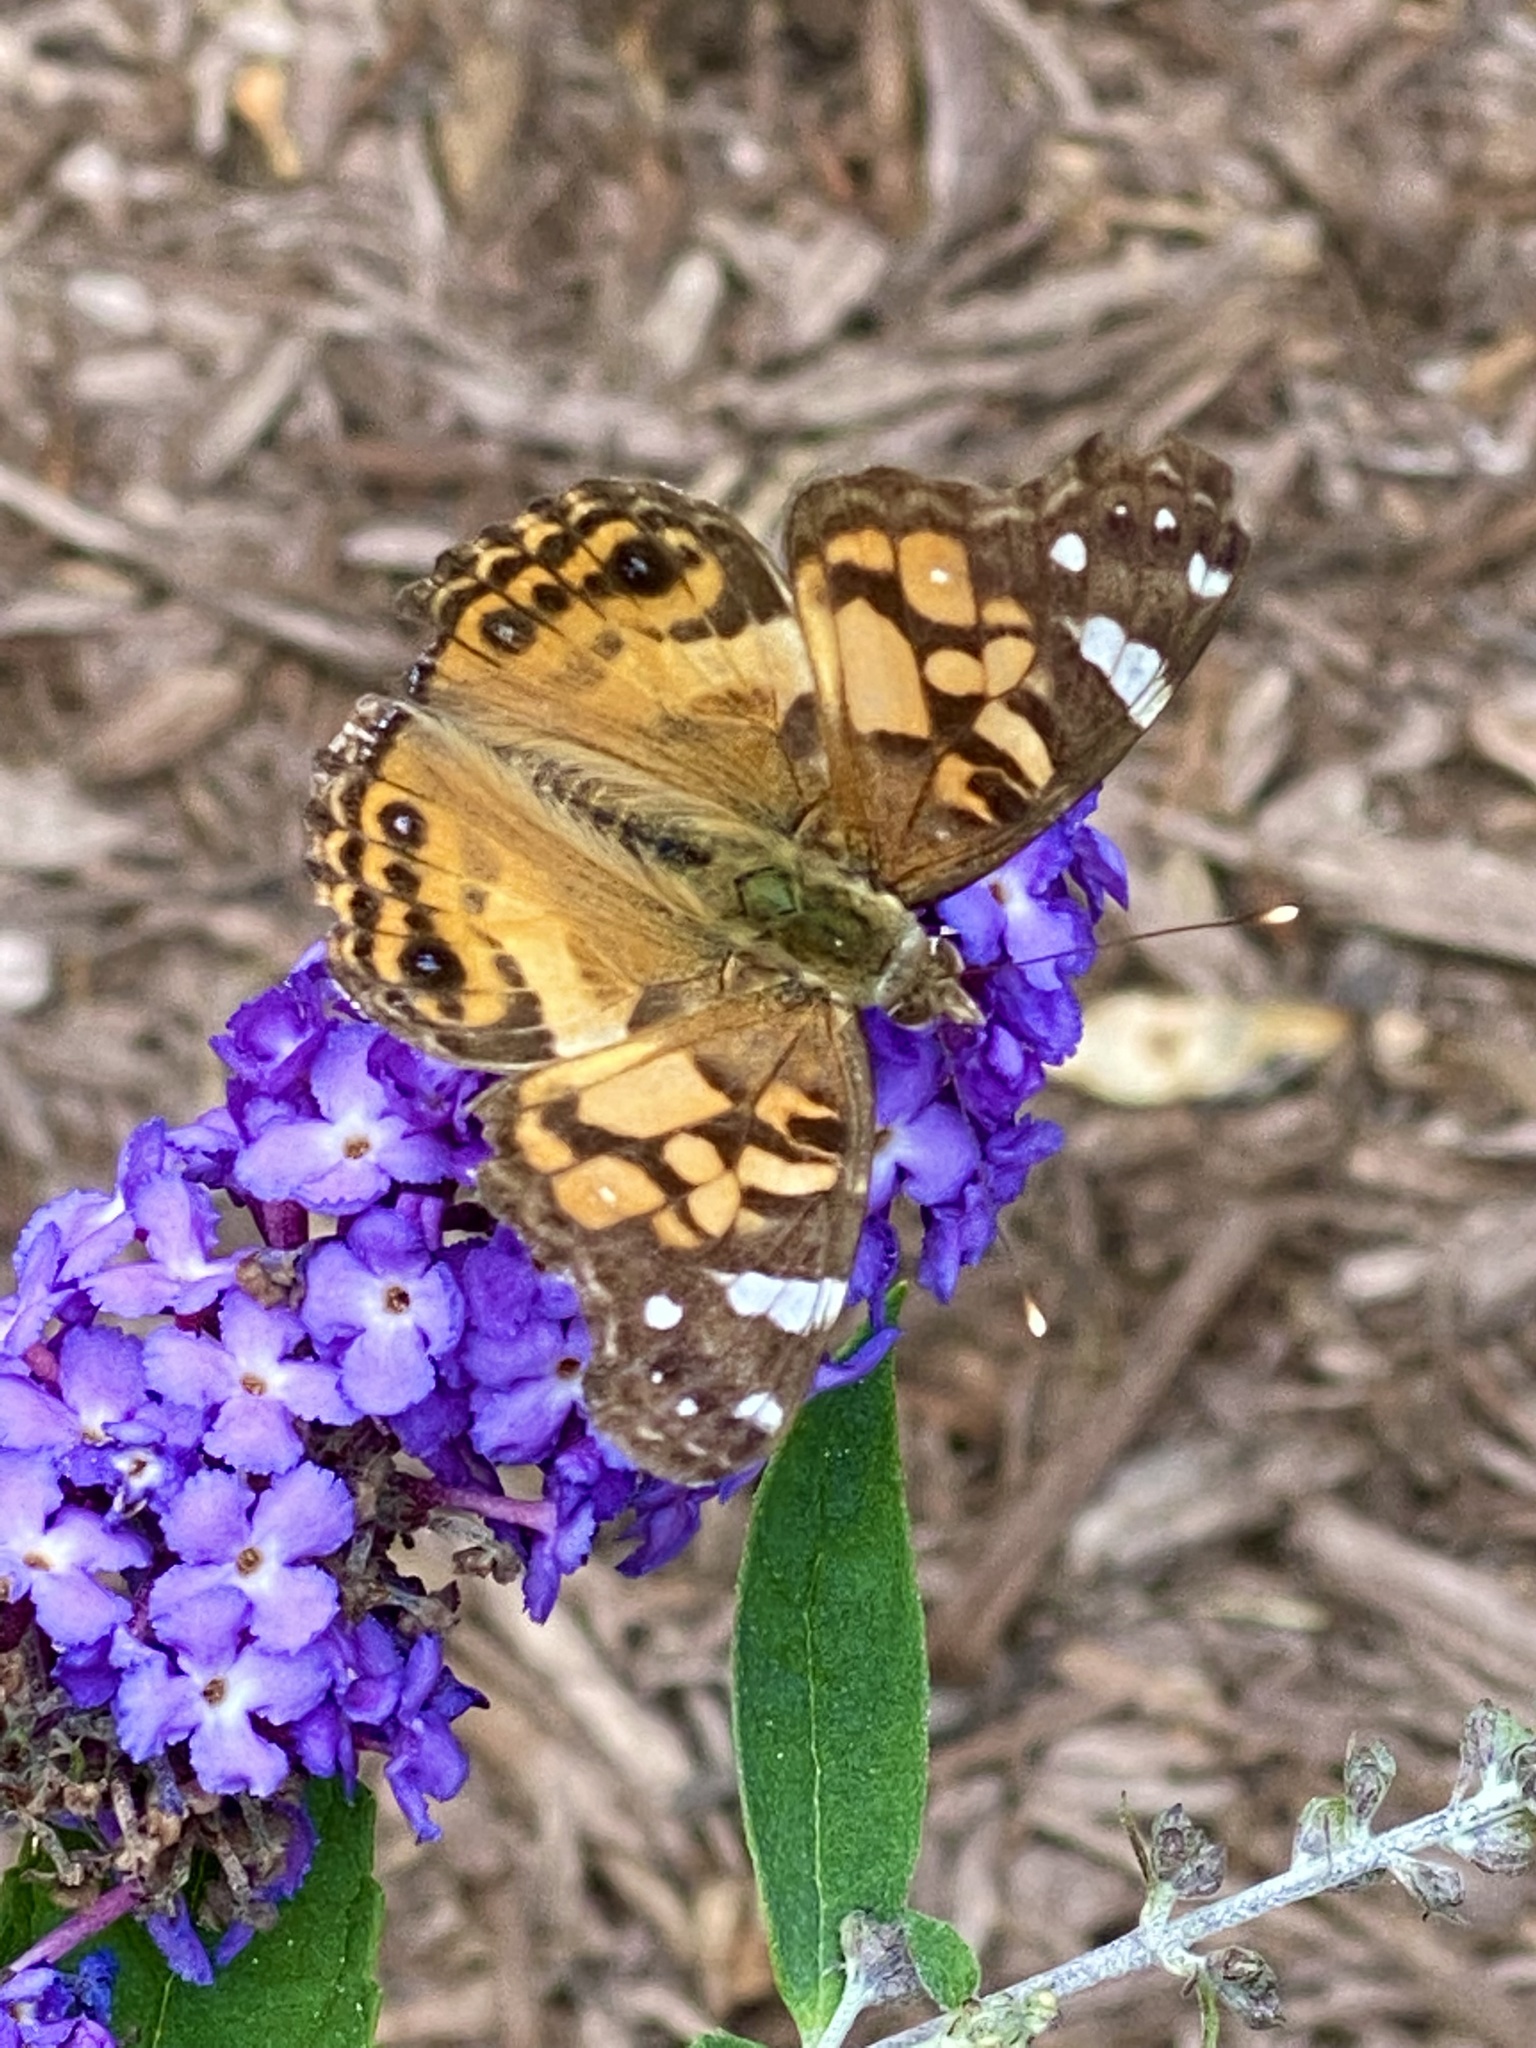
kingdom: Animalia
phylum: Arthropoda
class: Insecta
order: Lepidoptera
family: Nymphalidae
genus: Vanessa
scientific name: Vanessa virginiensis
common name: American lady
